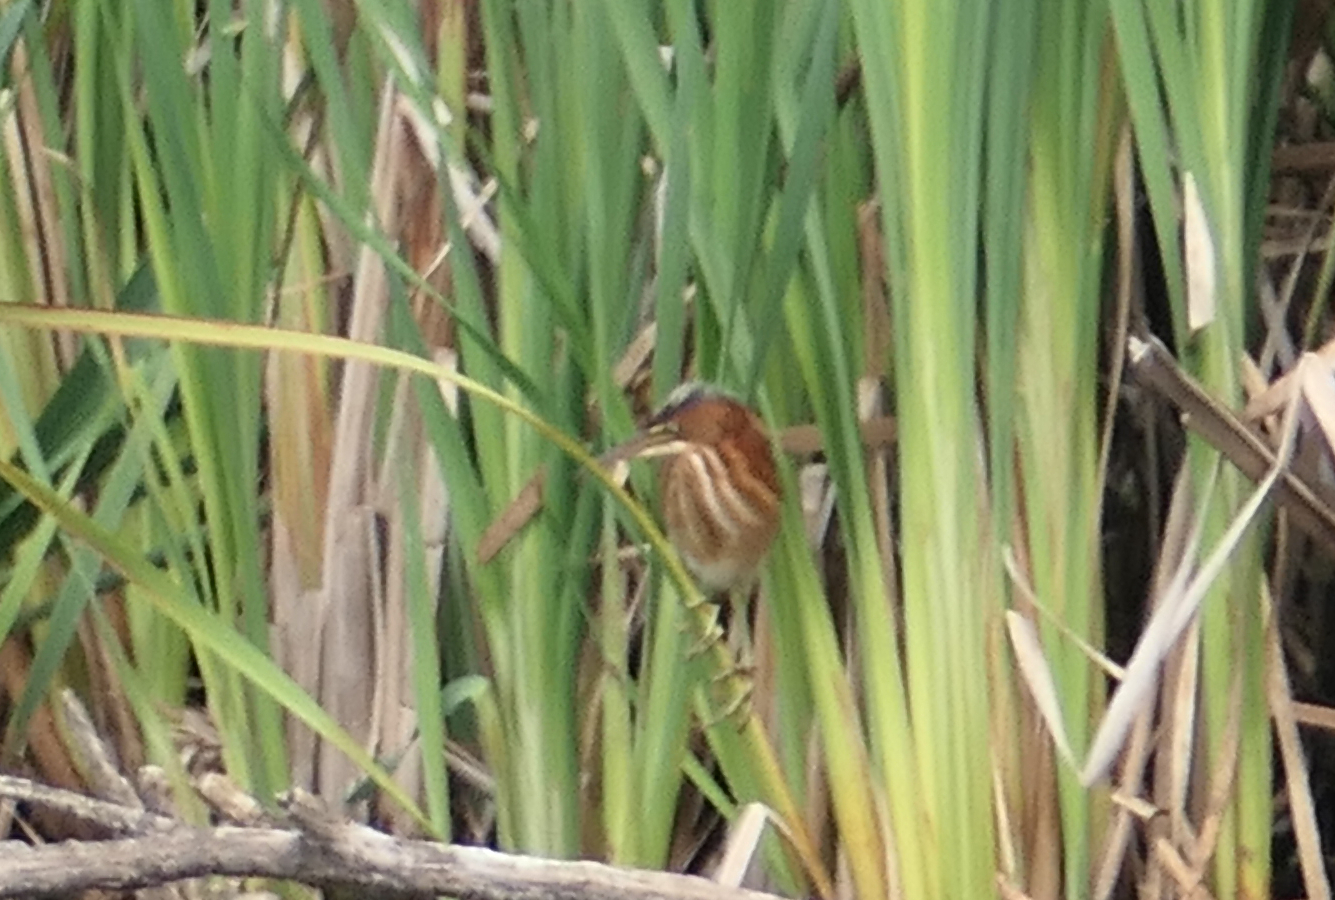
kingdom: Animalia
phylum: Chordata
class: Aves
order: Pelecaniformes
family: Ardeidae
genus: Ixobrychus
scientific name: Ixobrychus exilis
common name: Least bittern
